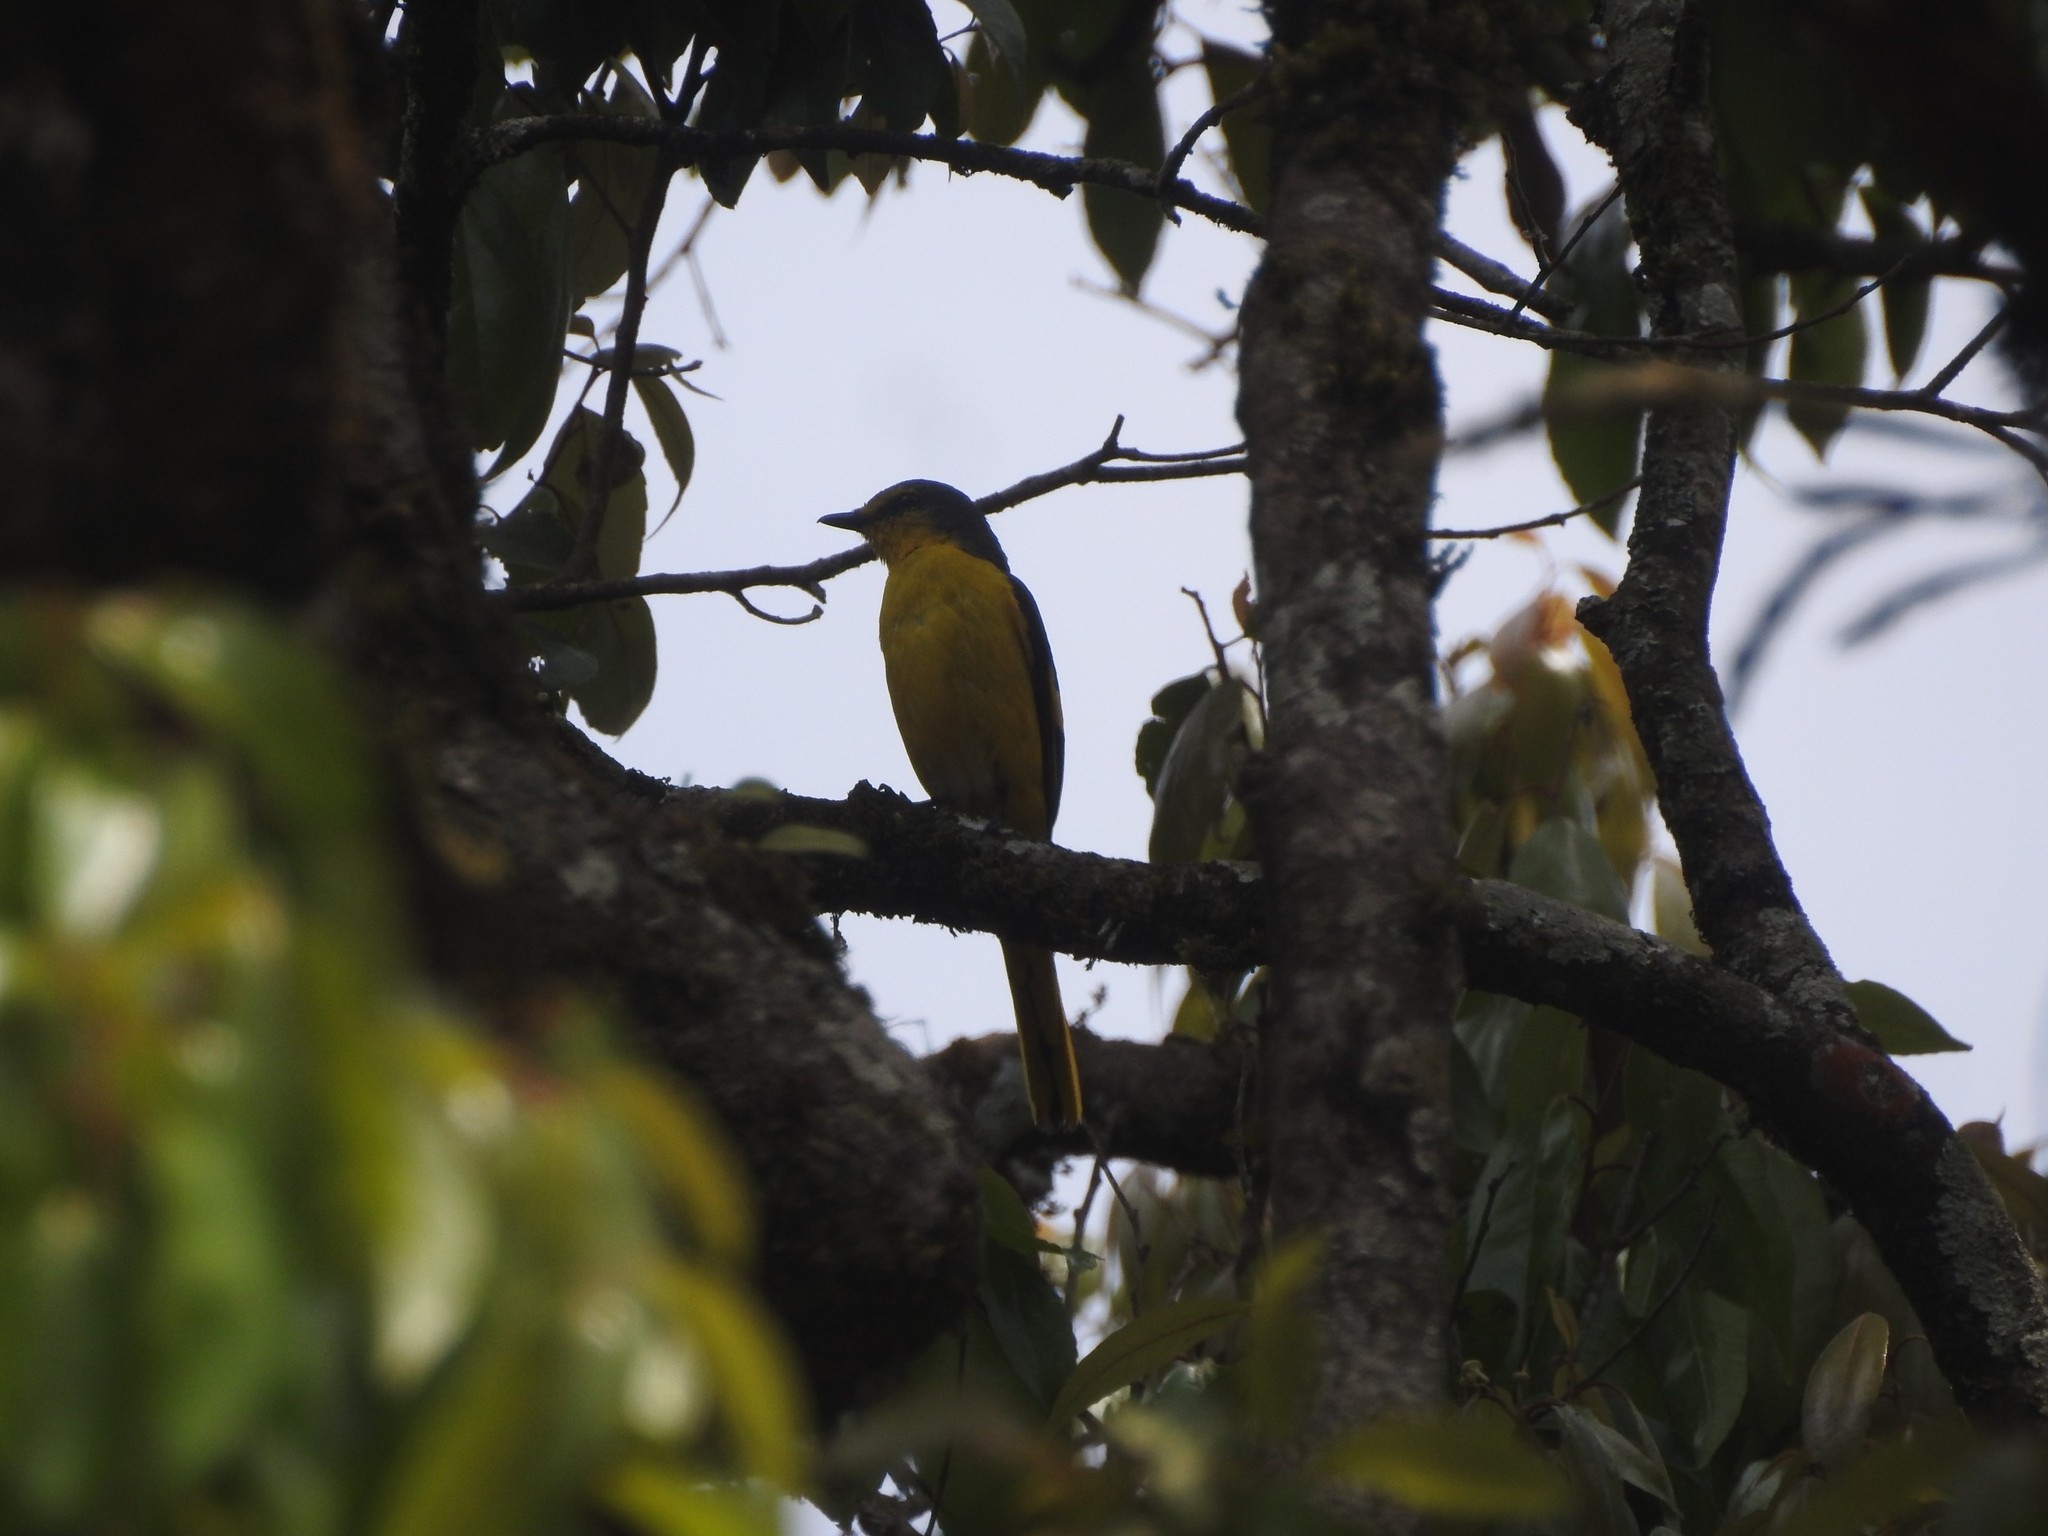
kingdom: Animalia
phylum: Chordata
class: Aves
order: Passeriformes
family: Campephagidae
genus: Pericrocotus
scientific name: Pericrocotus flammeus
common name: Orange minivet
